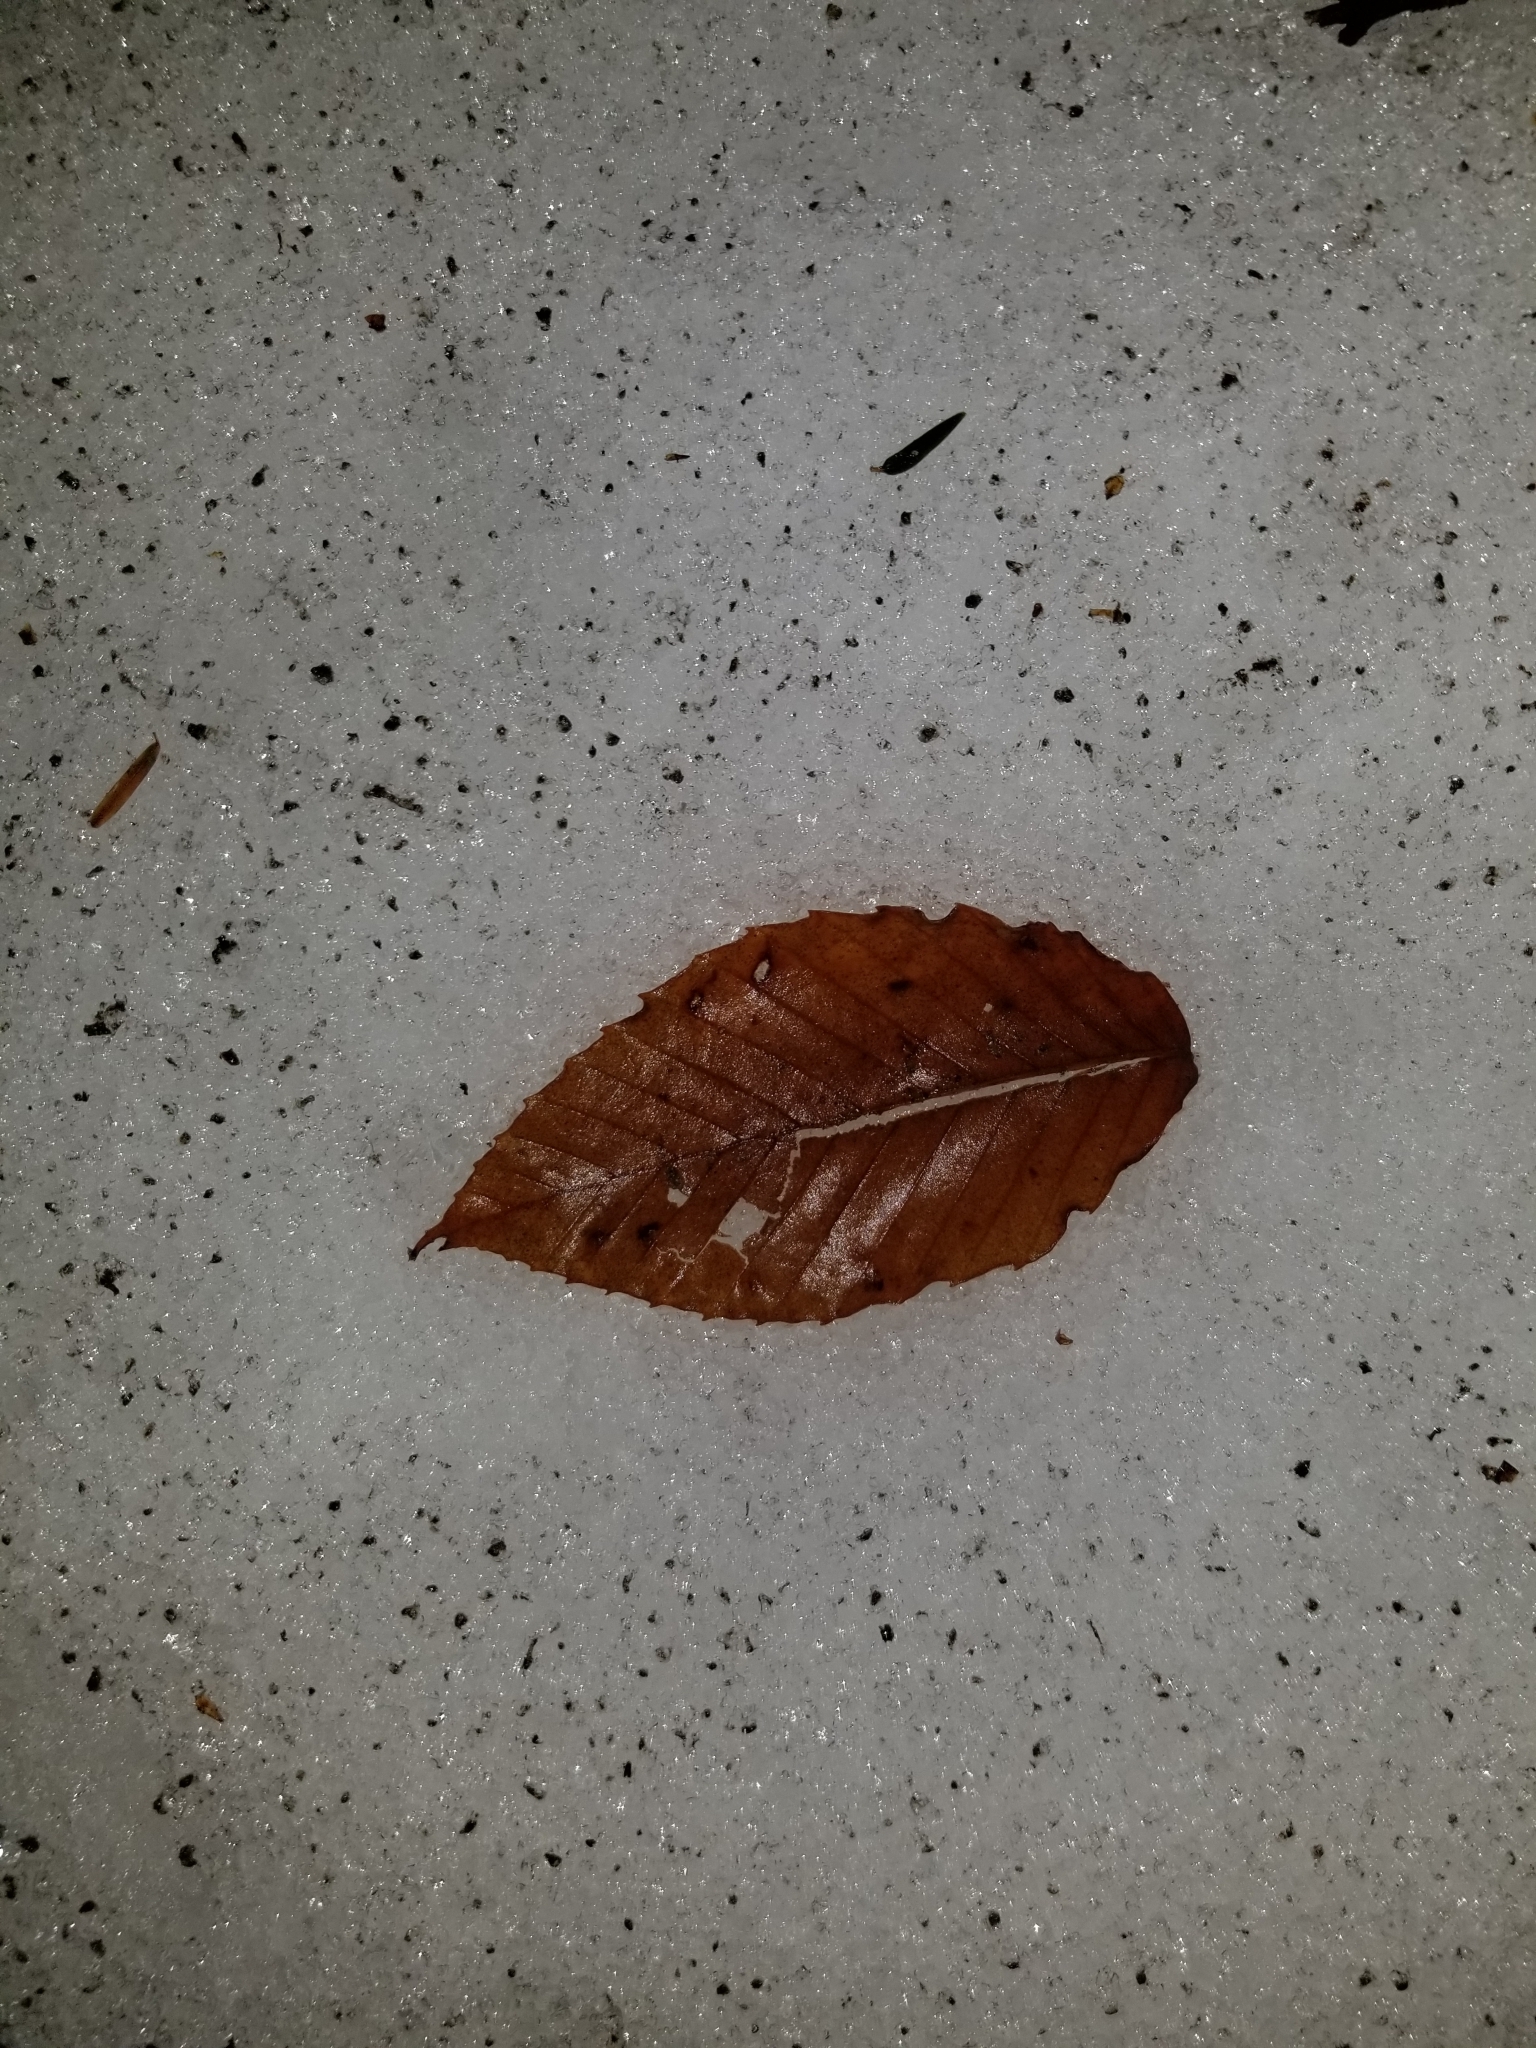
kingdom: Plantae
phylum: Tracheophyta
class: Magnoliopsida
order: Fagales
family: Fagaceae
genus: Fagus
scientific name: Fagus grandifolia
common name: American beech
